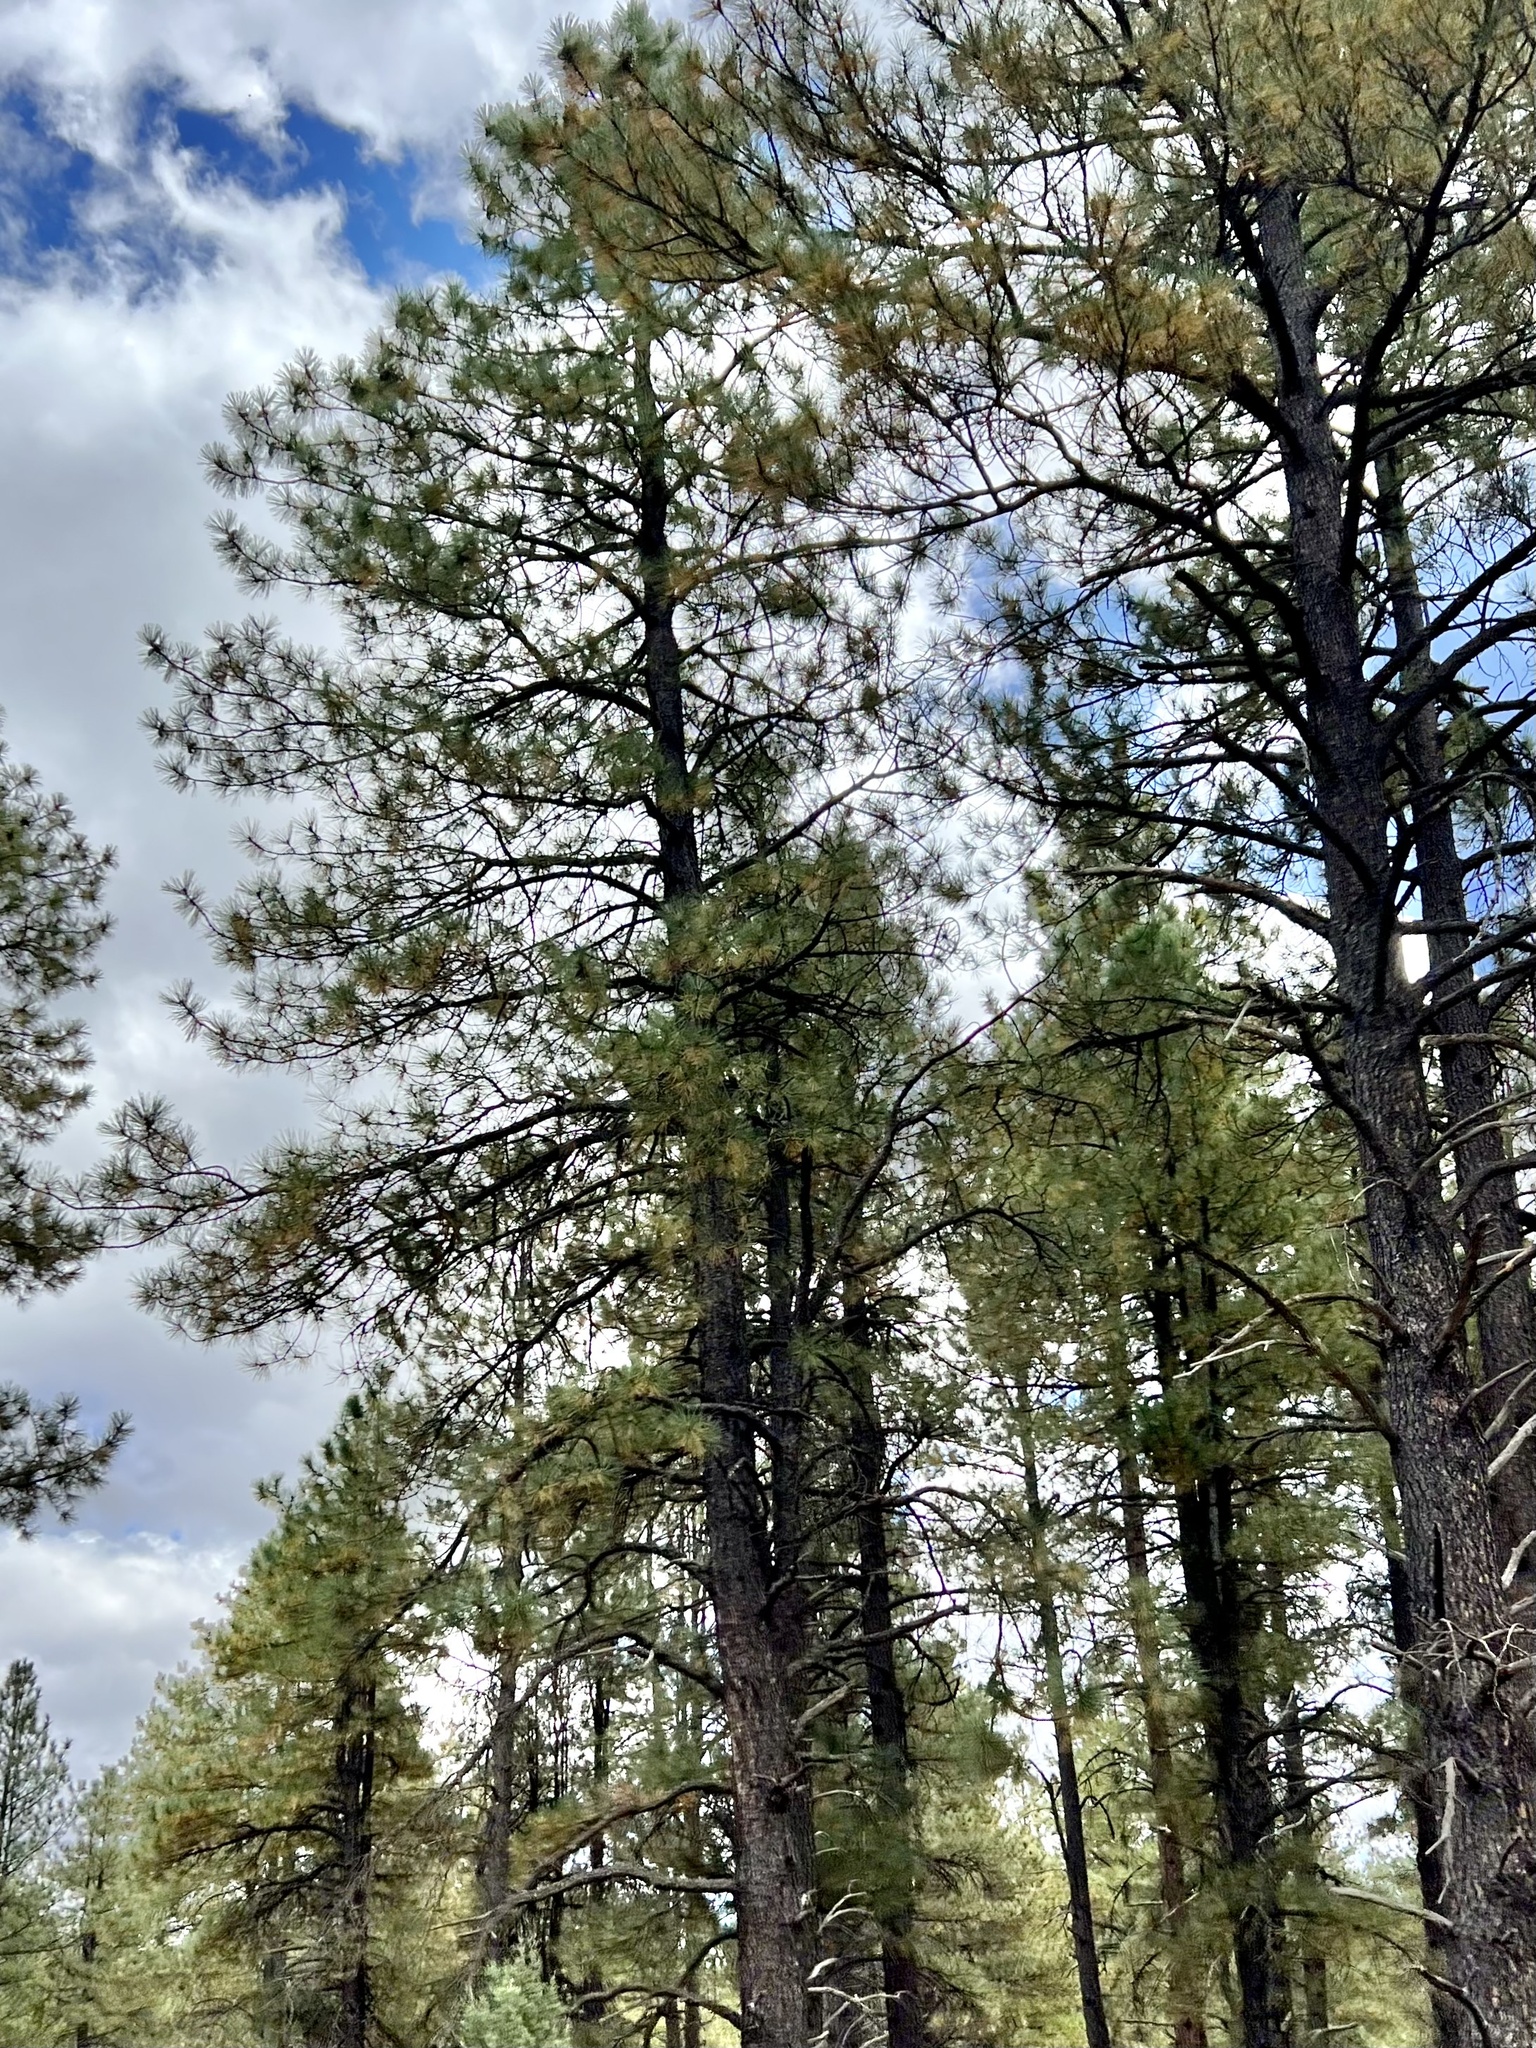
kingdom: Plantae
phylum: Tracheophyta
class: Pinopsida
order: Pinales
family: Pinaceae
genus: Pinus
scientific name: Pinus ponderosa
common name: Western yellow-pine
